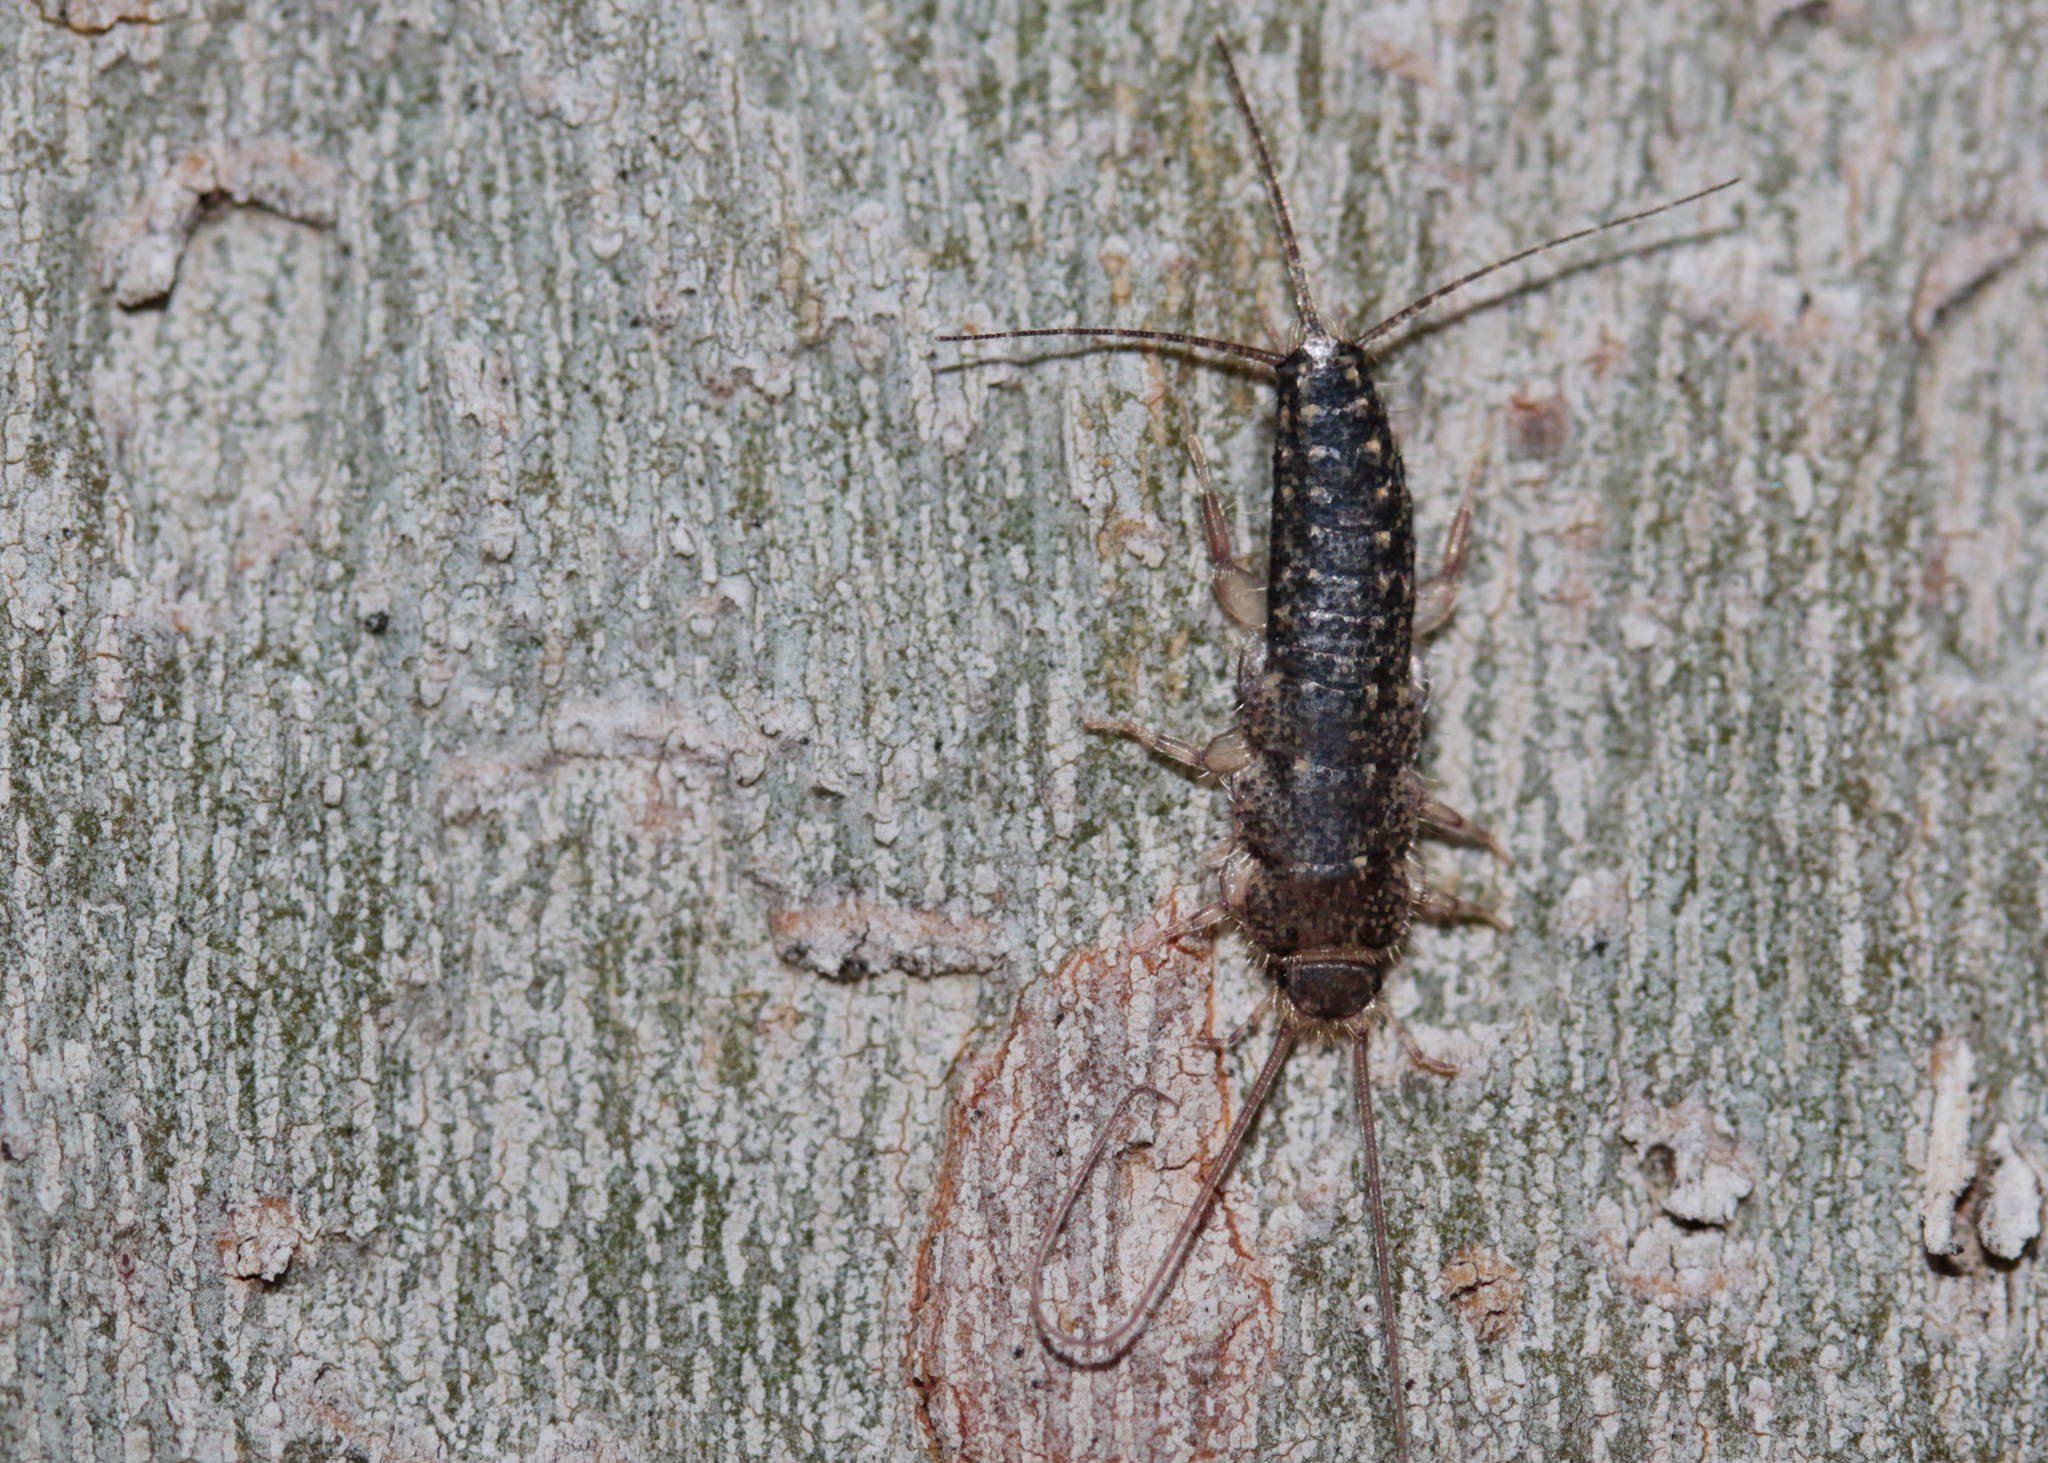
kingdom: Animalia
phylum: Arthropoda
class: Insecta
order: Zygentoma
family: Lepismatidae
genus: Ctenolepisma
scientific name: Ctenolepisma lineata
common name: Four-lined silverfish
